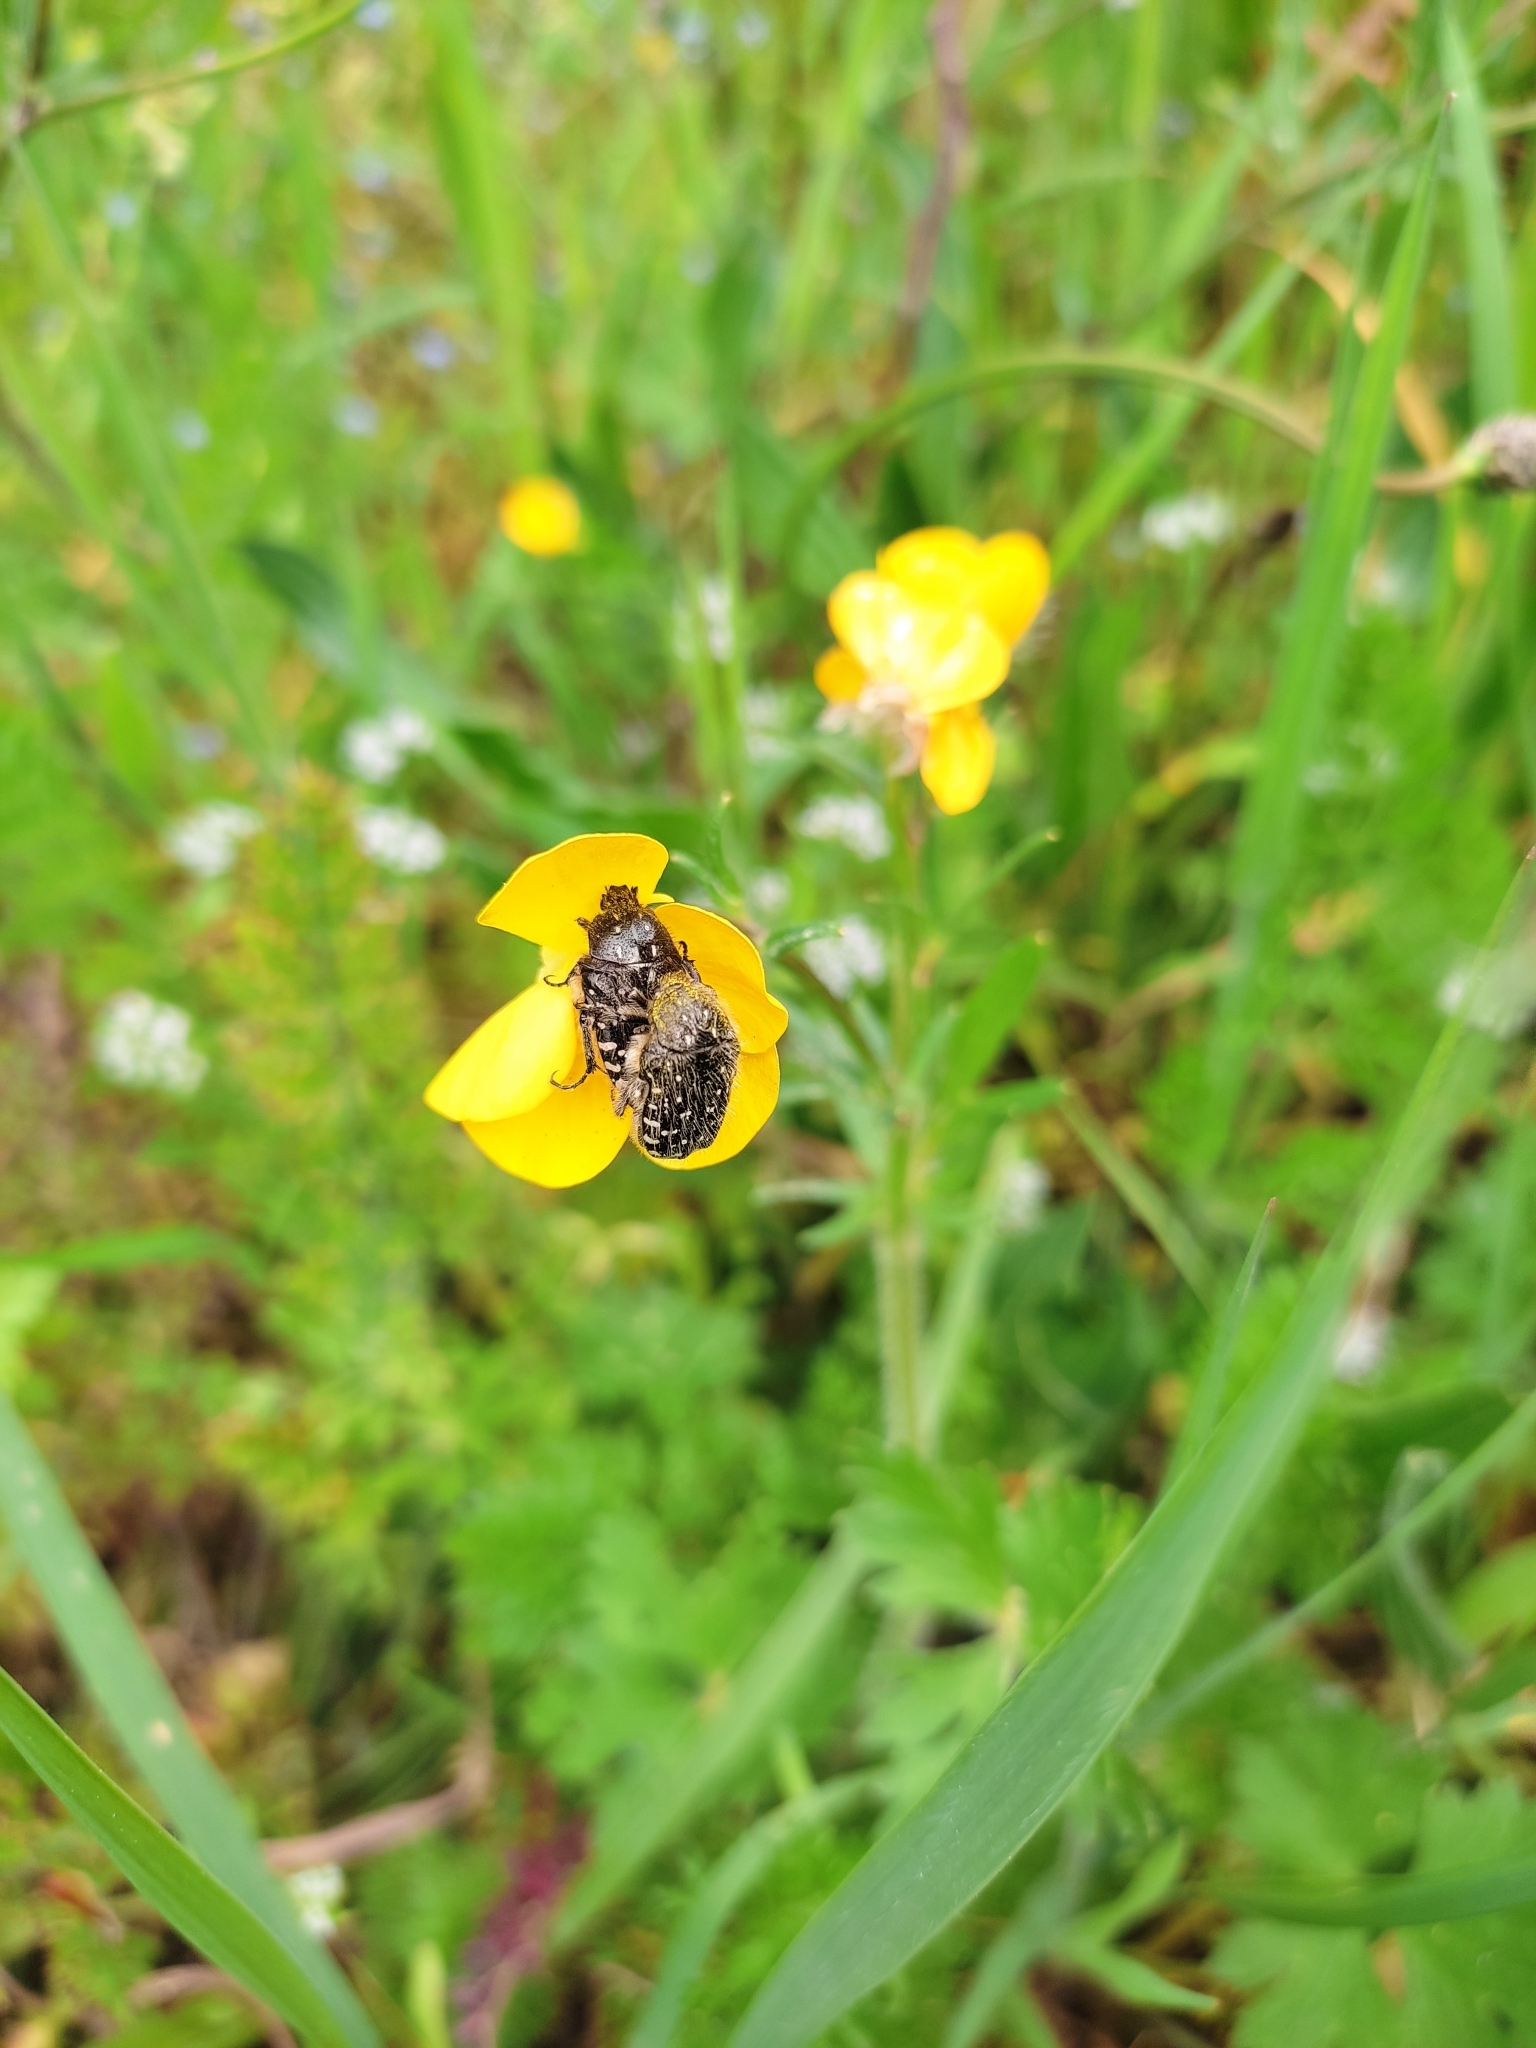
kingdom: Animalia
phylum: Arthropoda
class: Insecta
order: Coleoptera
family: Scarabaeidae
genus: Oxythyrea
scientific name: Oxythyrea funesta
